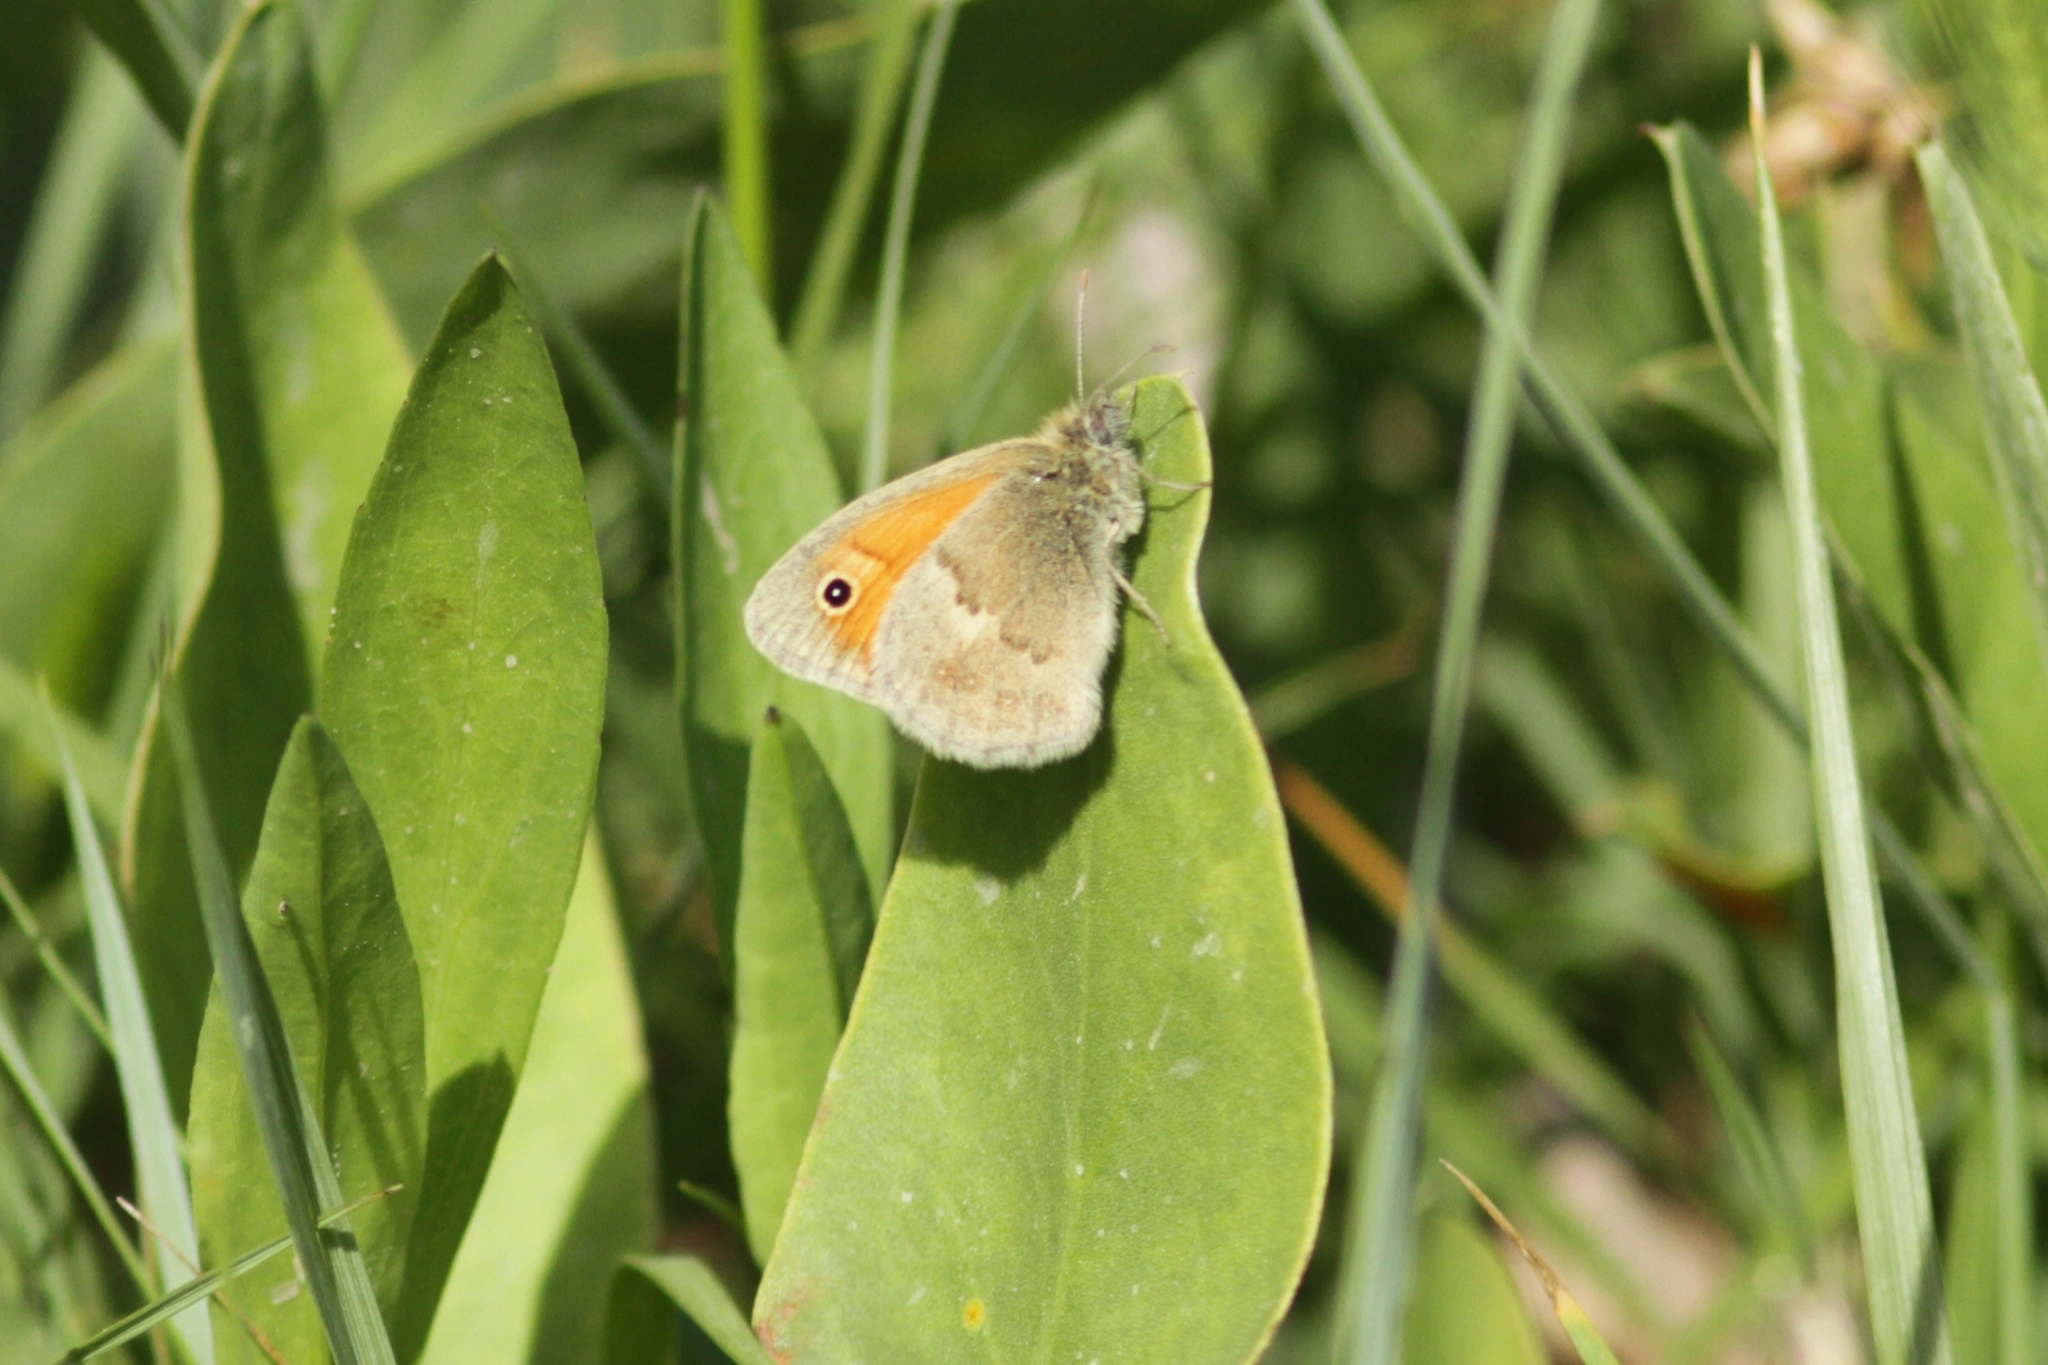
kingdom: Animalia
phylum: Arthropoda
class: Insecta
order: Lepidoptera
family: Nymphalidae
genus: Coenonympha
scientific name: Coenonympha pamphilus
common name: Small heath
